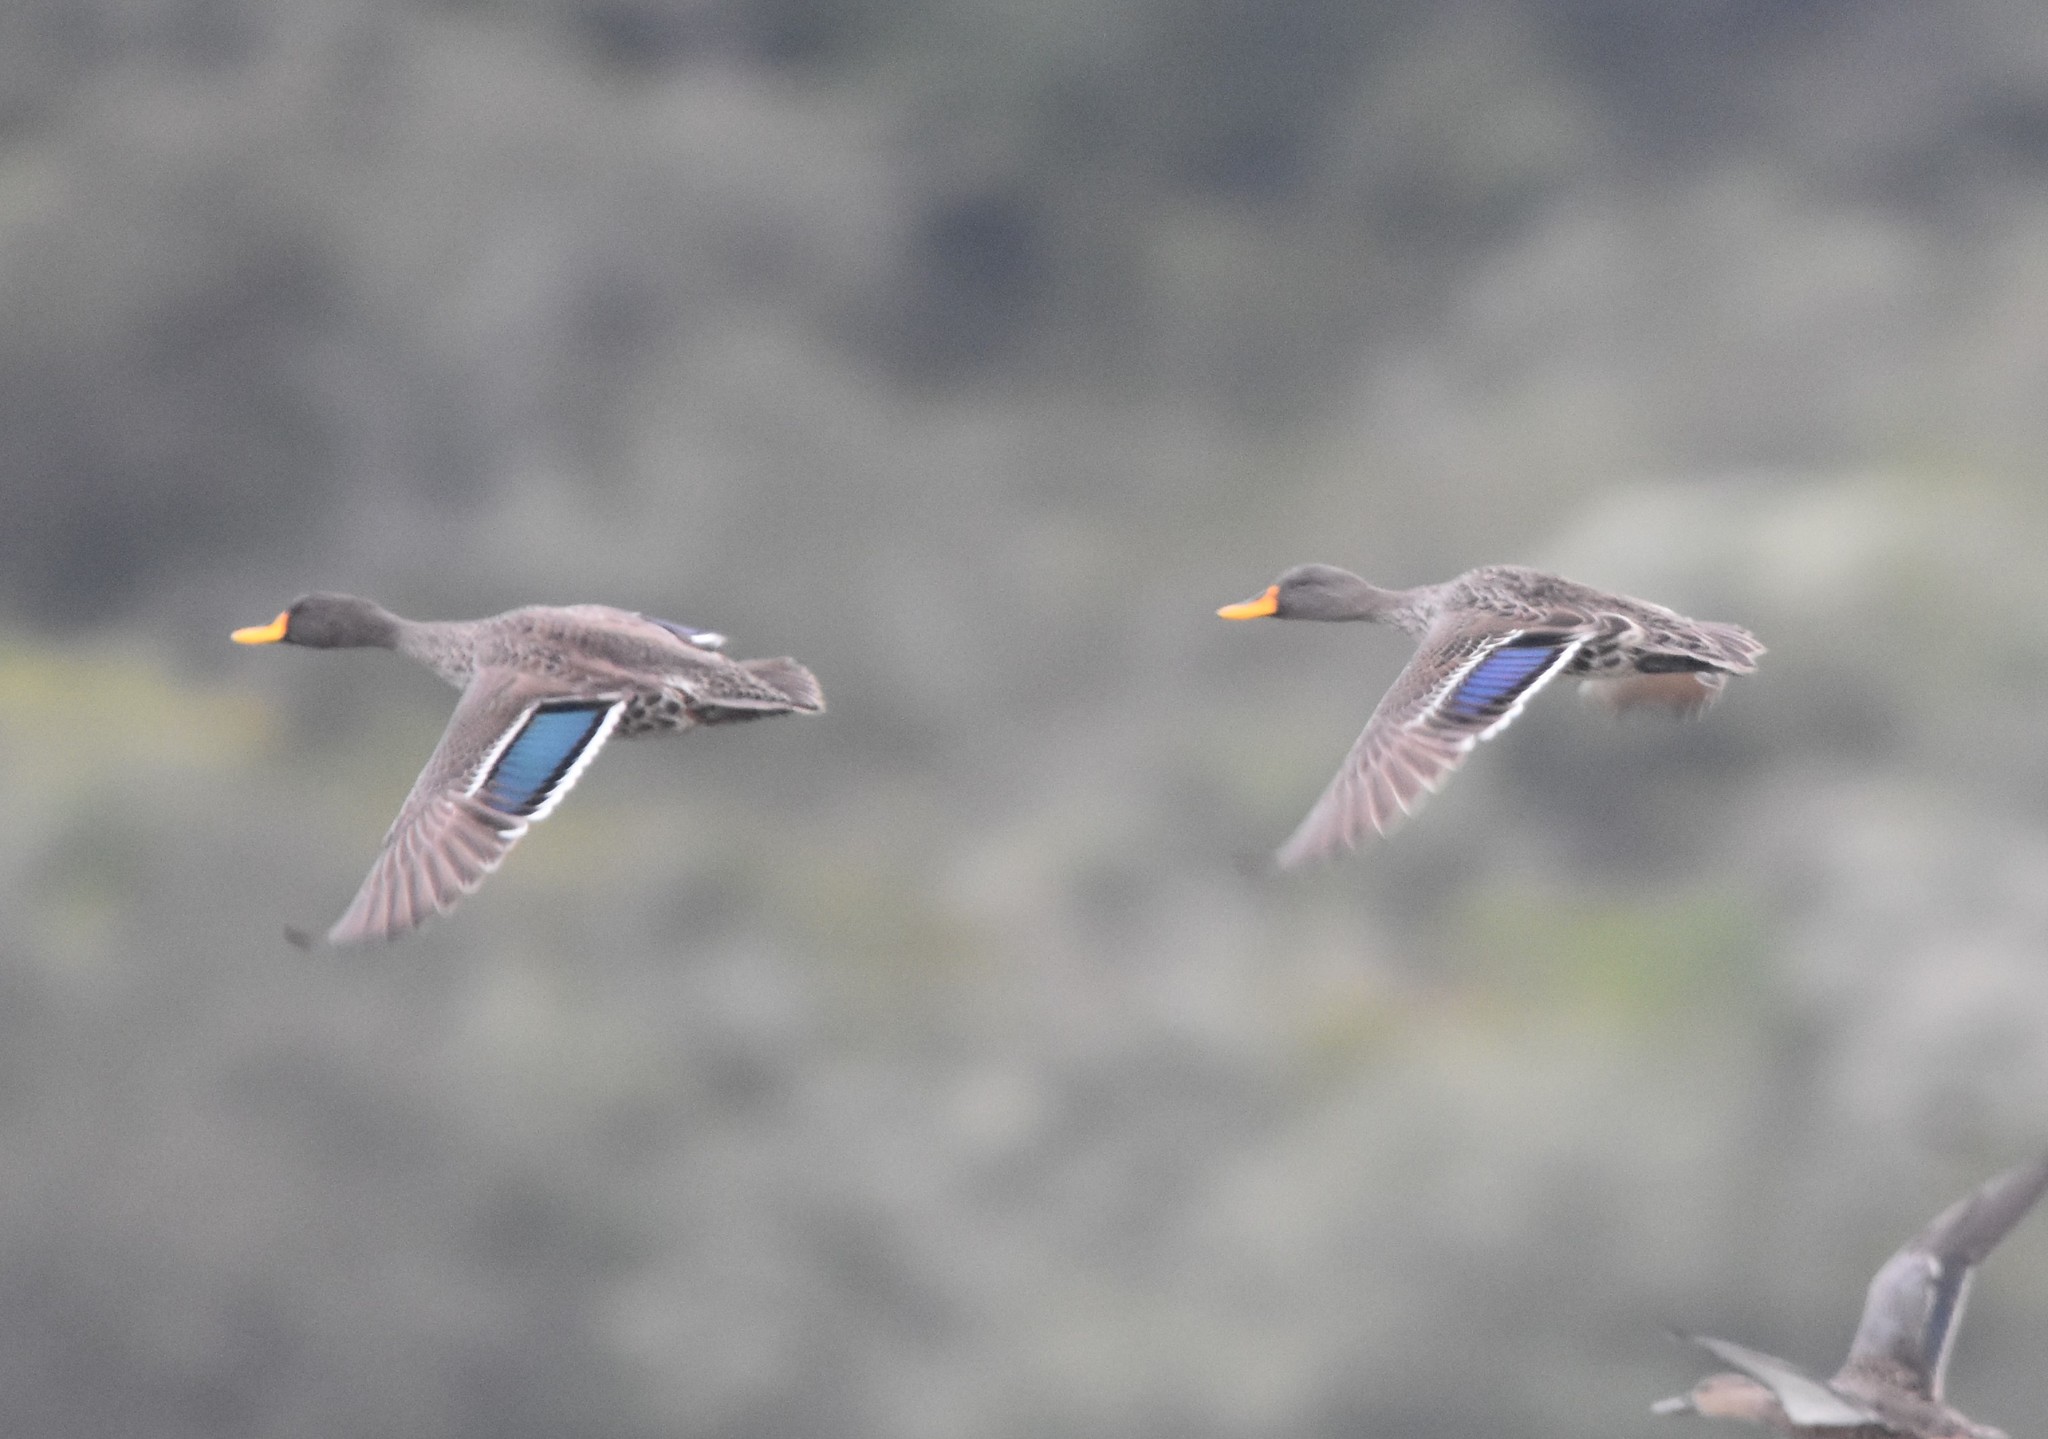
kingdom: Animalia
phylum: Chordata
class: Aves
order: Anseriformes
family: Anatidae
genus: Anas
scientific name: Anas undulata
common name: Yellow-billed duck
